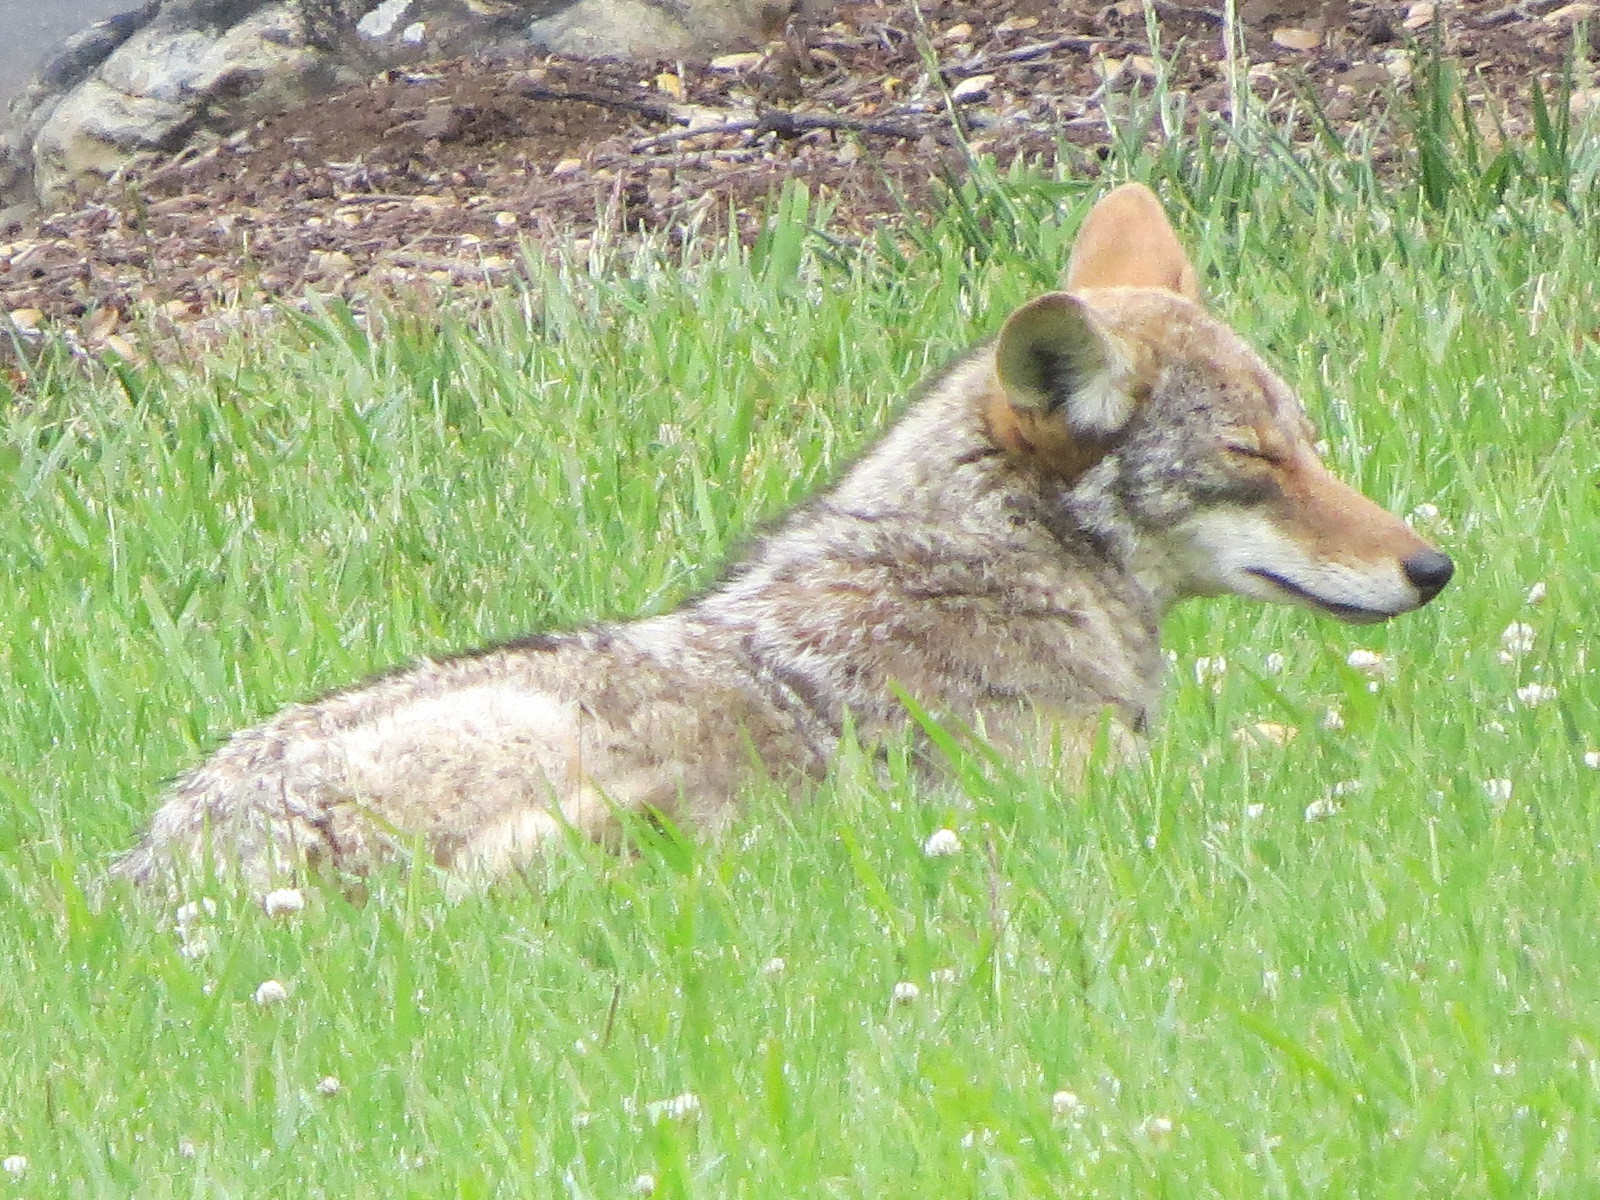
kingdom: Animalia
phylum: Chordata
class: Mammalia
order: Carnivora
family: Canidae
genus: Canis
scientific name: Canis latrans
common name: Coyote
